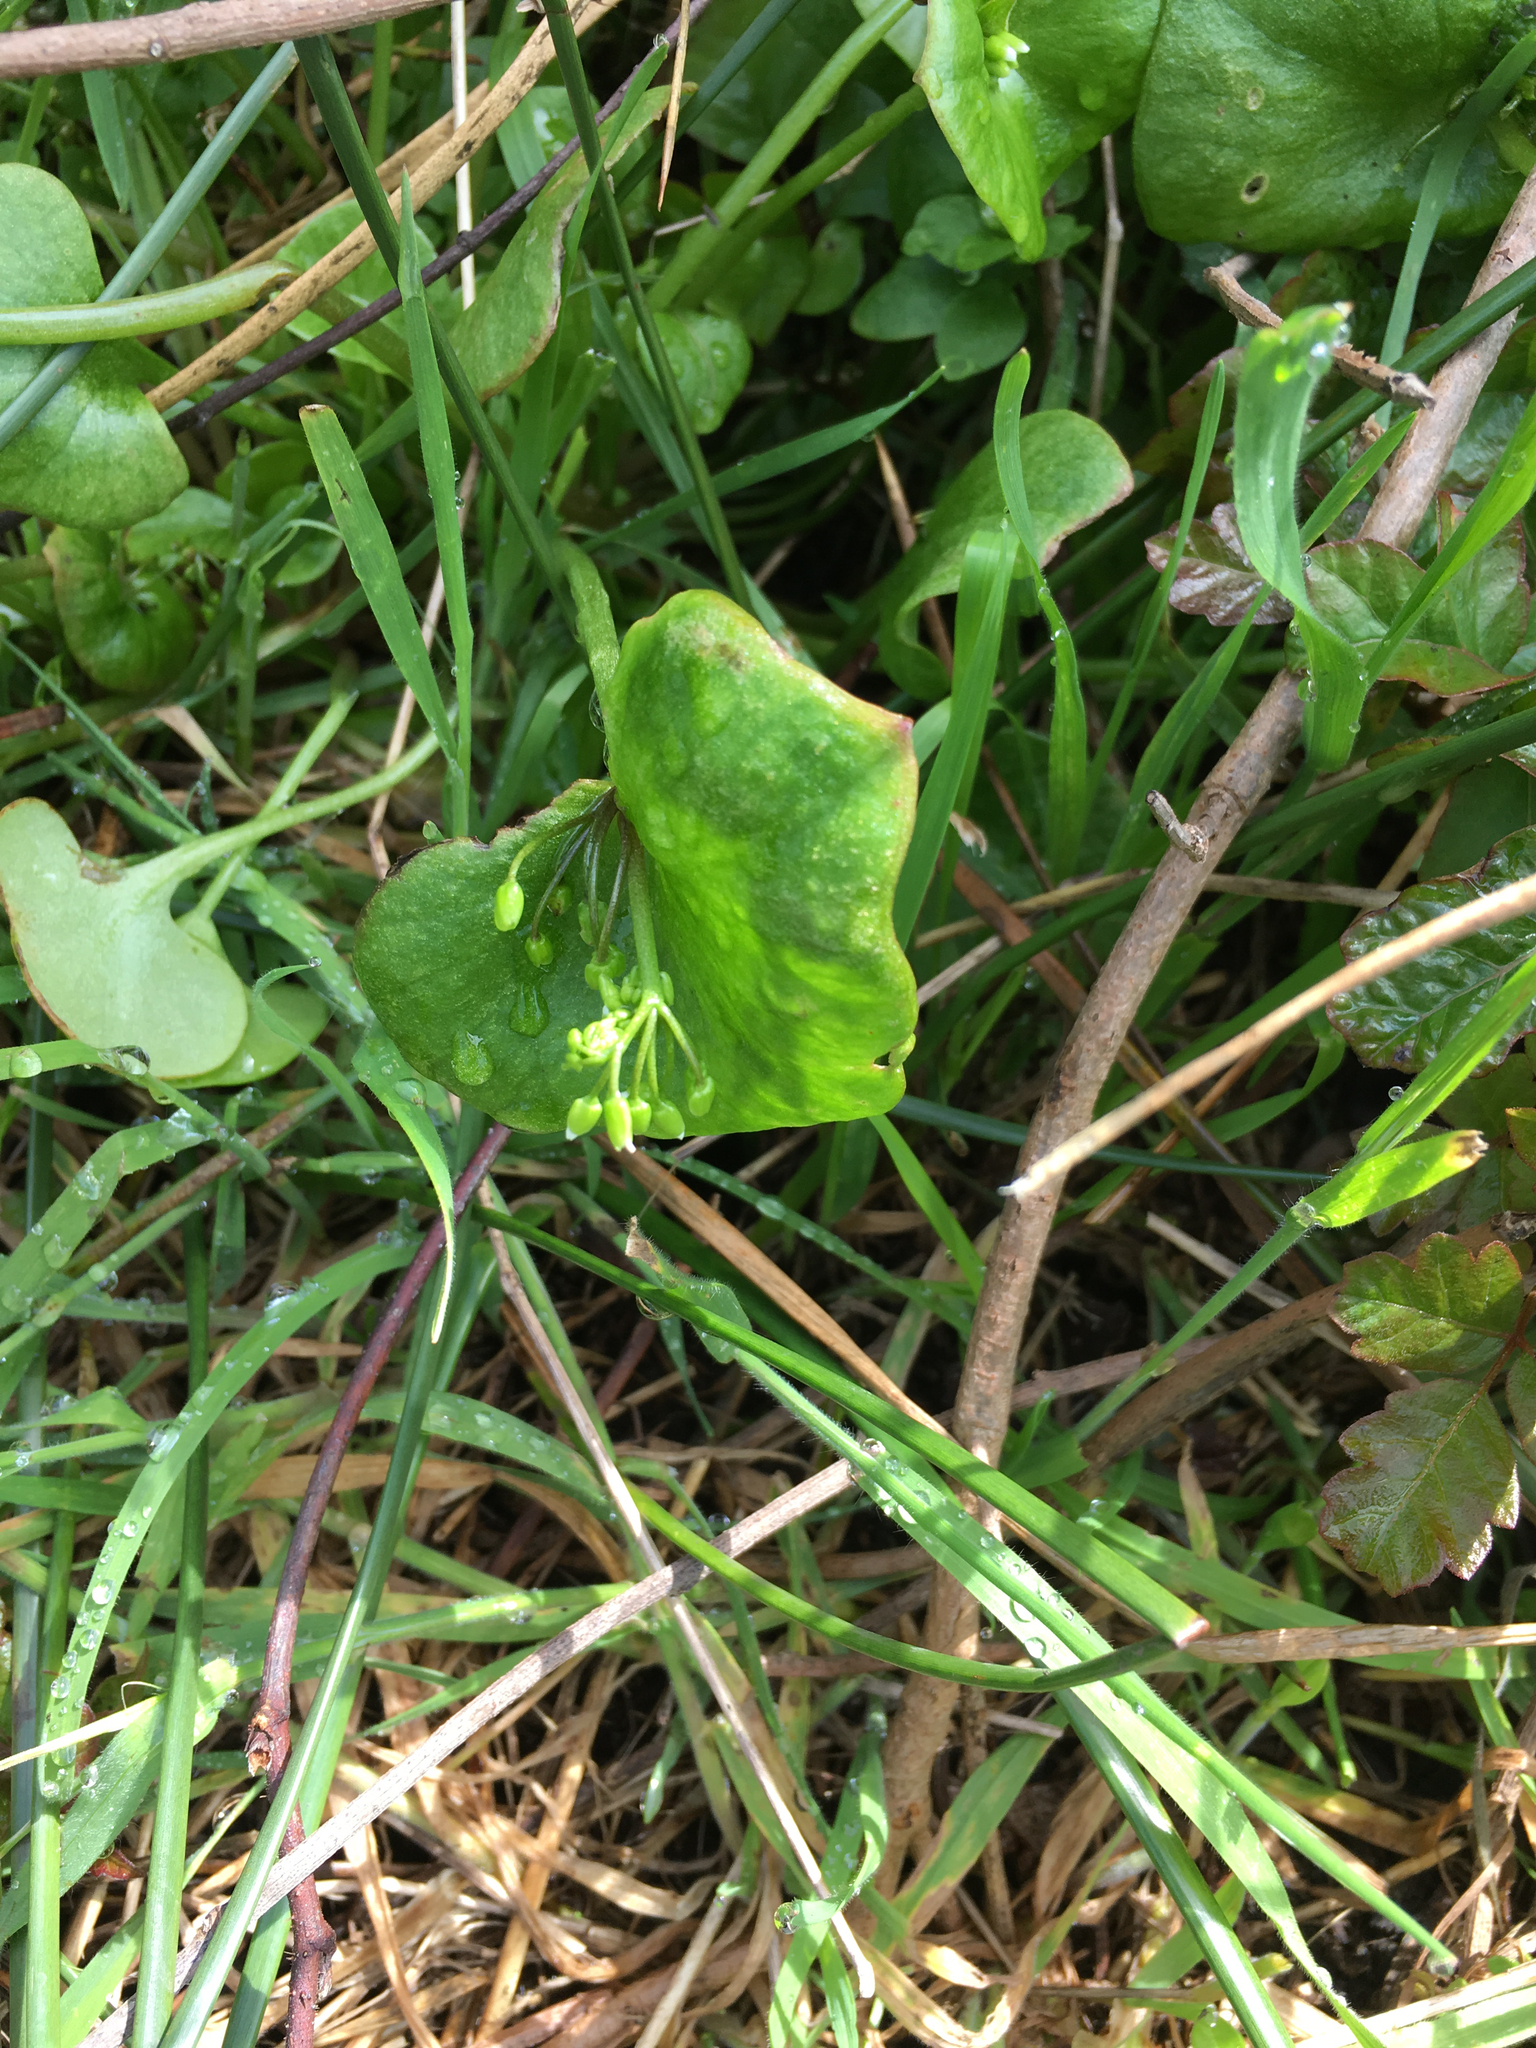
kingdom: Plantae
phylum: Tracheophyta
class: Magnoliopsida
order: Caryophyllales
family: Montiaceae
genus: Claytonia
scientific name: Claytonia perfoliata
